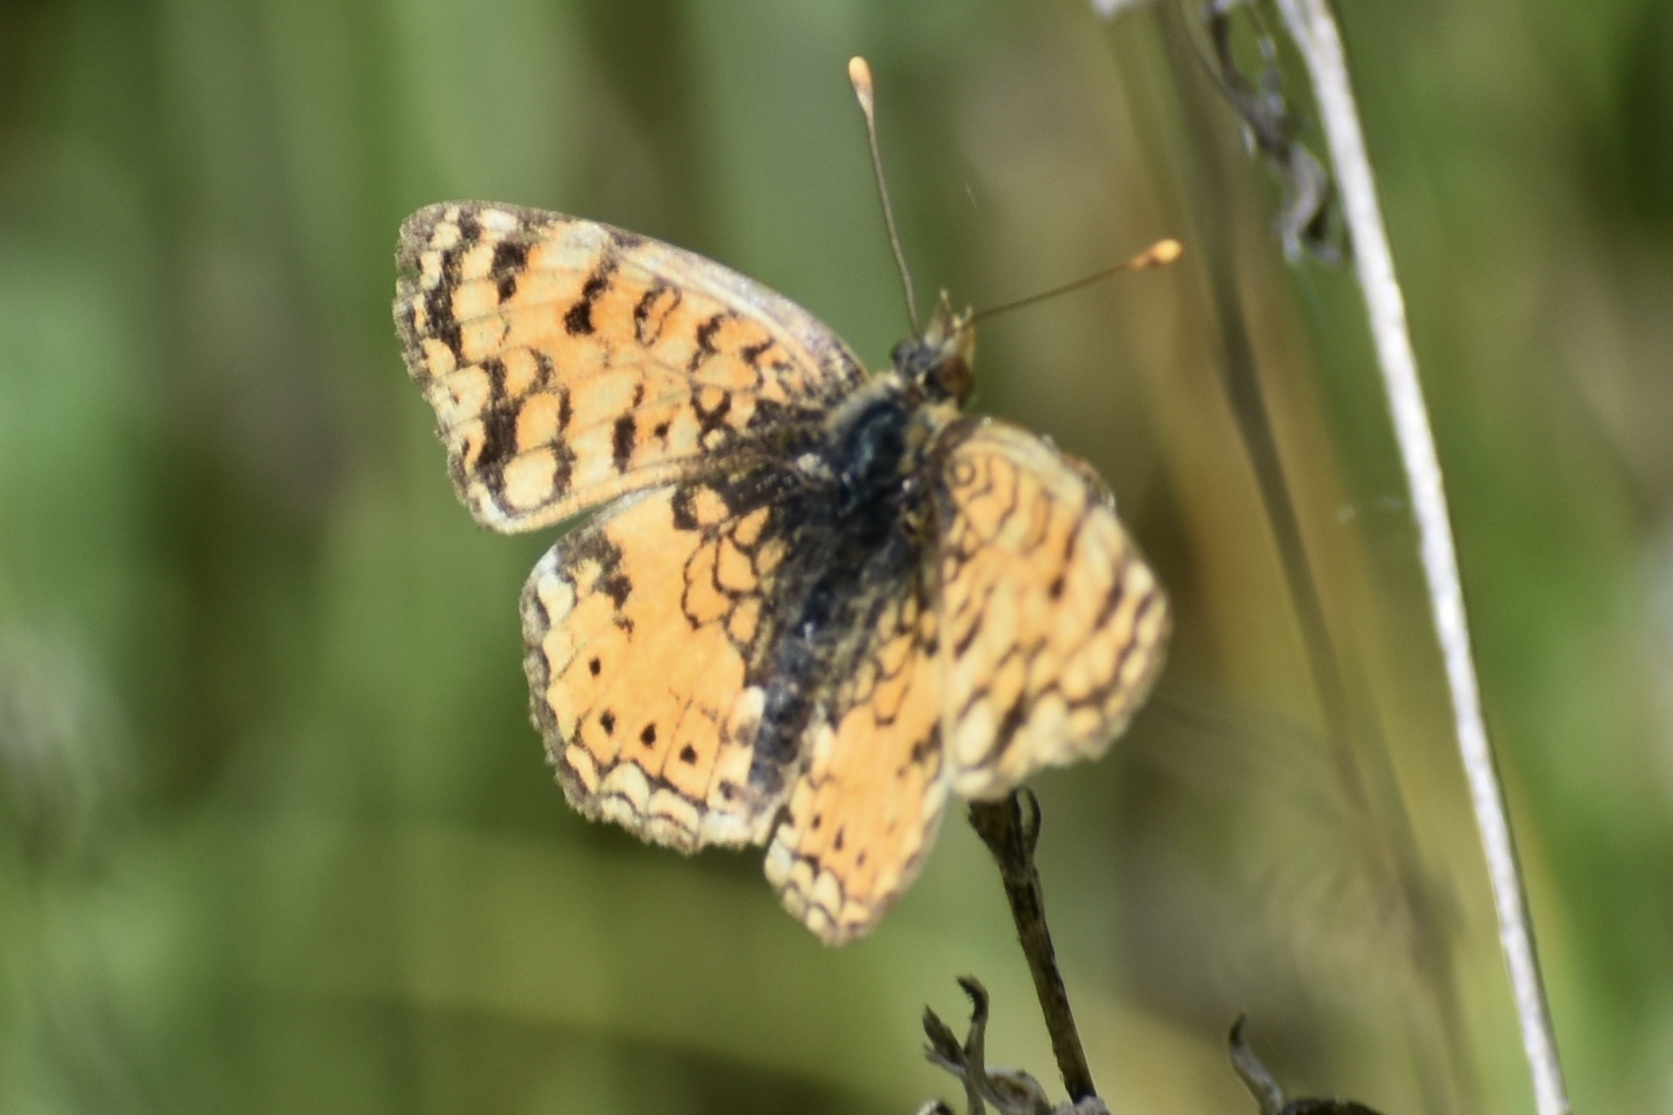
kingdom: Animalia
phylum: Arthropoda
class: Insecta
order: Lepidoptera
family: Nymphalidae
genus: Eresia
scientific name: Eresia aveyrona
